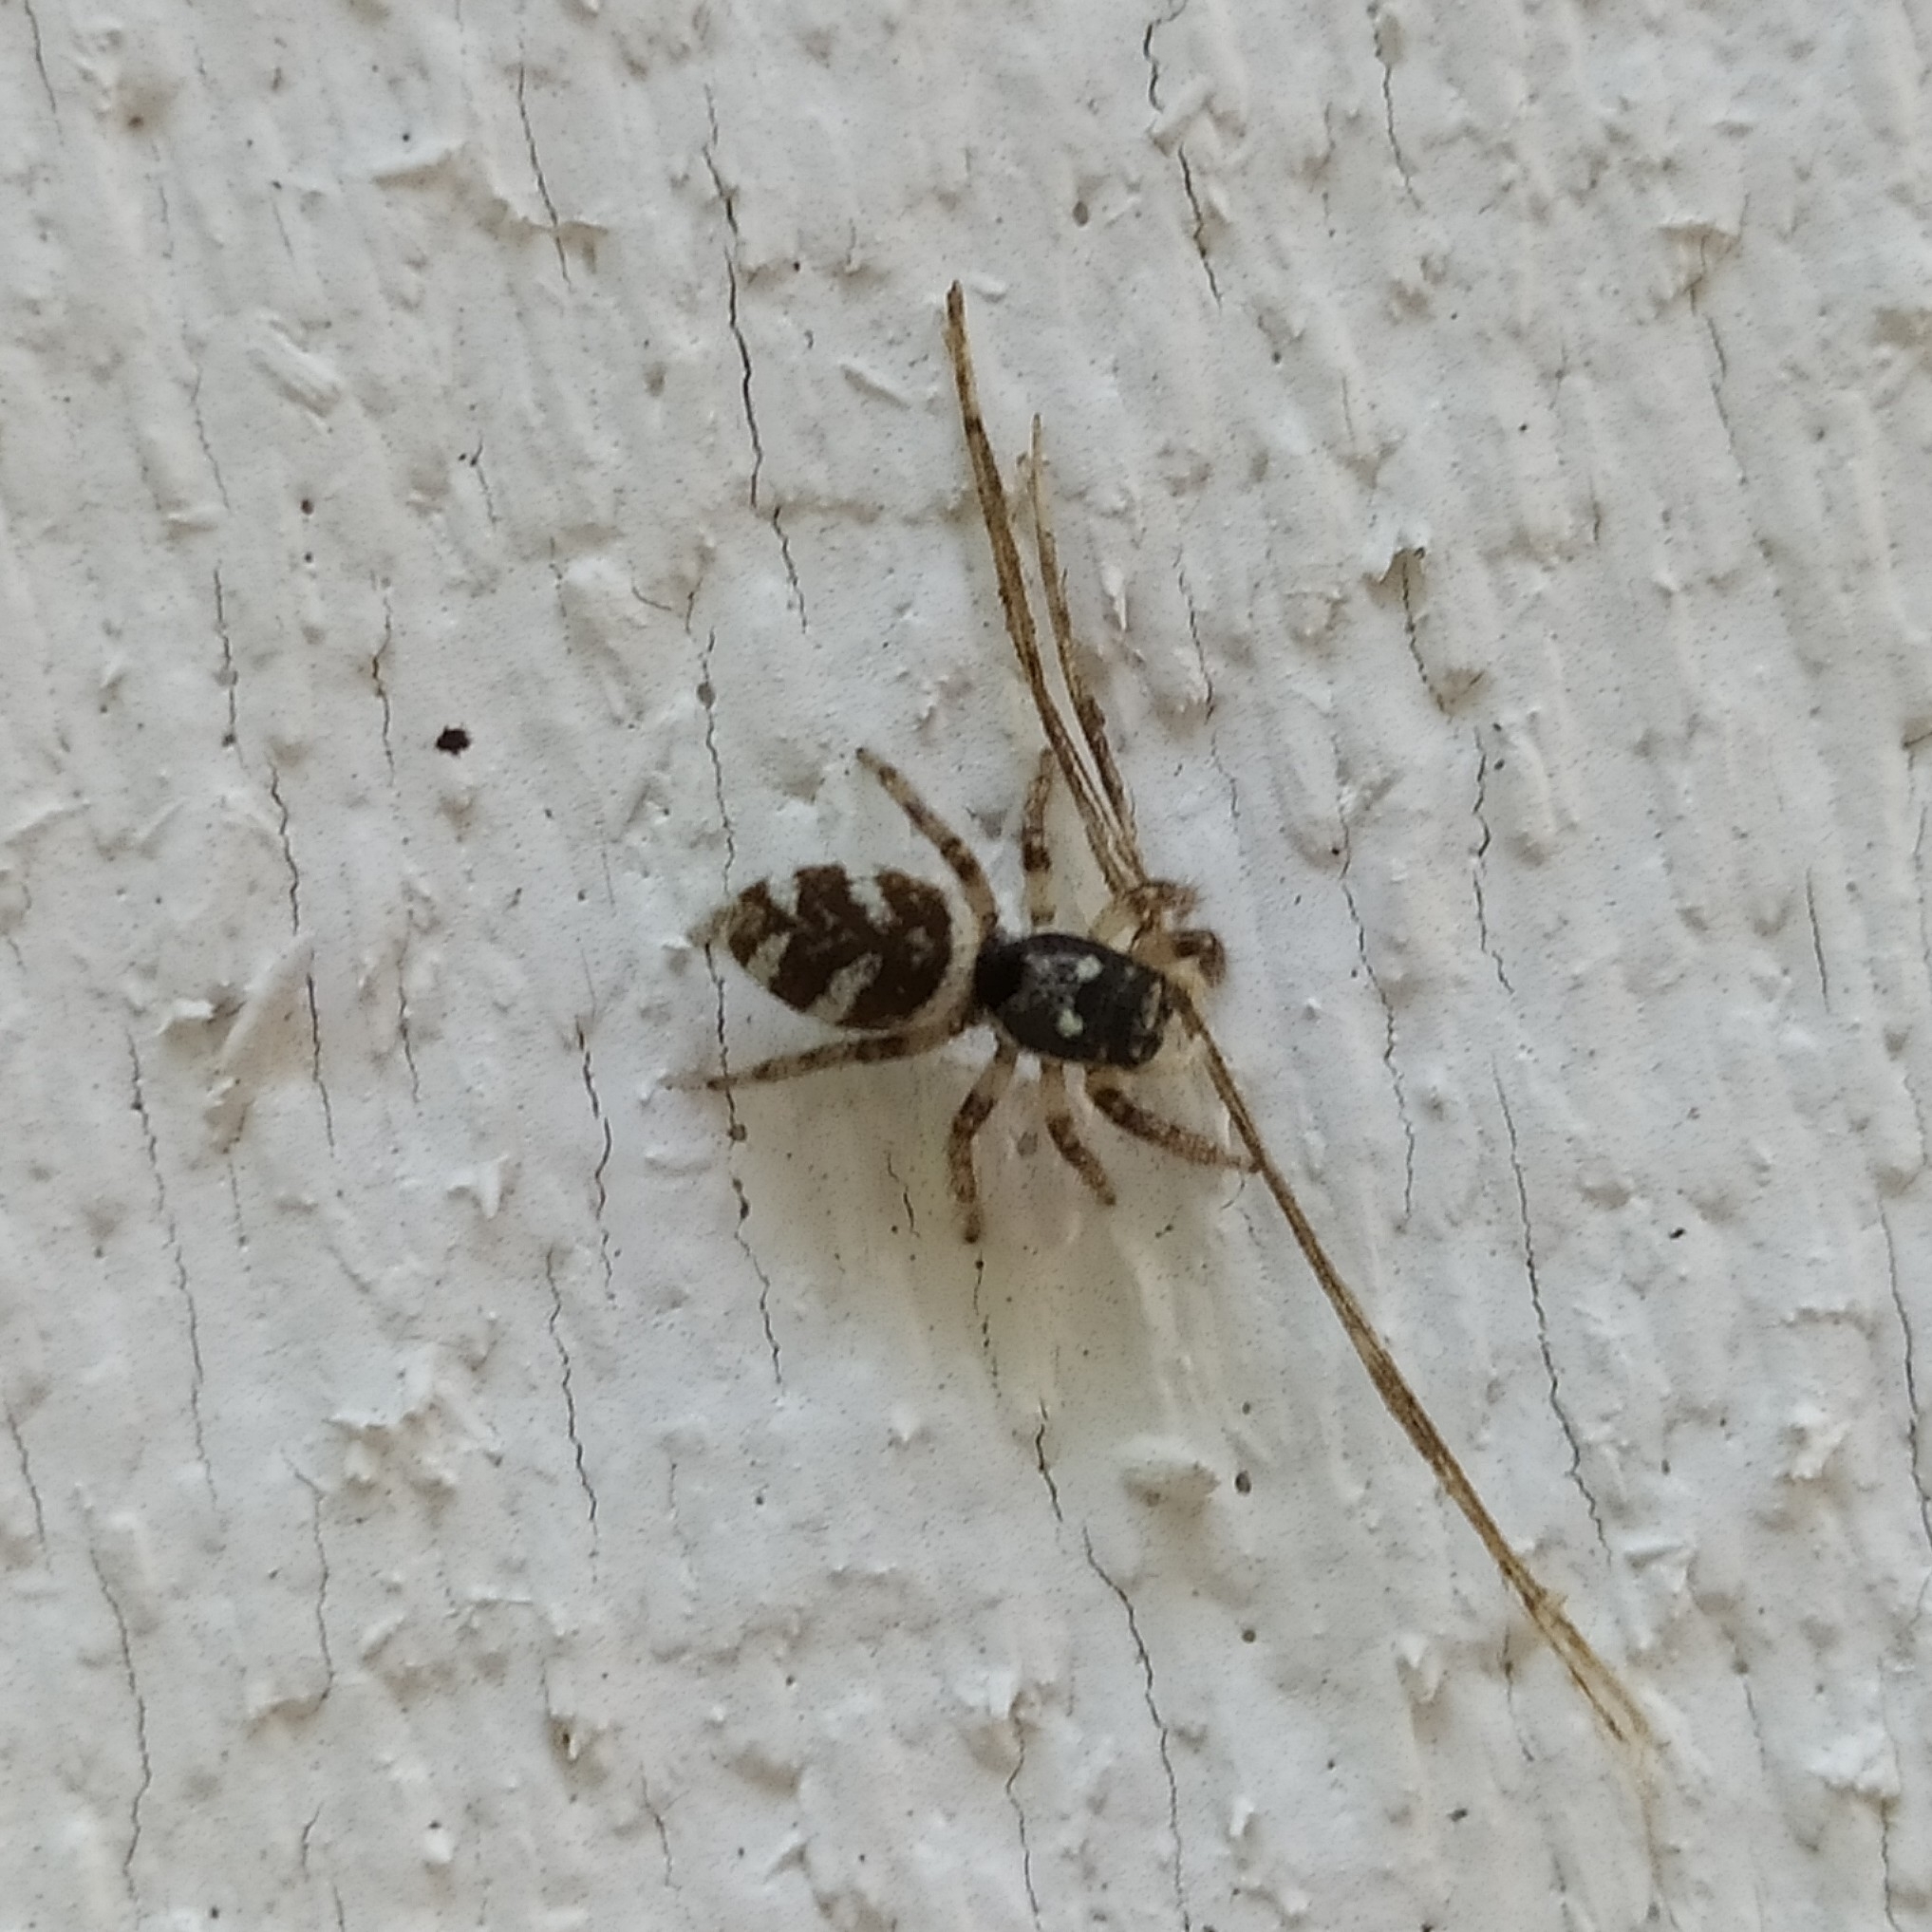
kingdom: Animalia
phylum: Arthropoda
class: Arachnida
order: Araneae
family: Salticidae
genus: Salticus
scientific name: Salticus scenicus
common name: Zebra jumper
